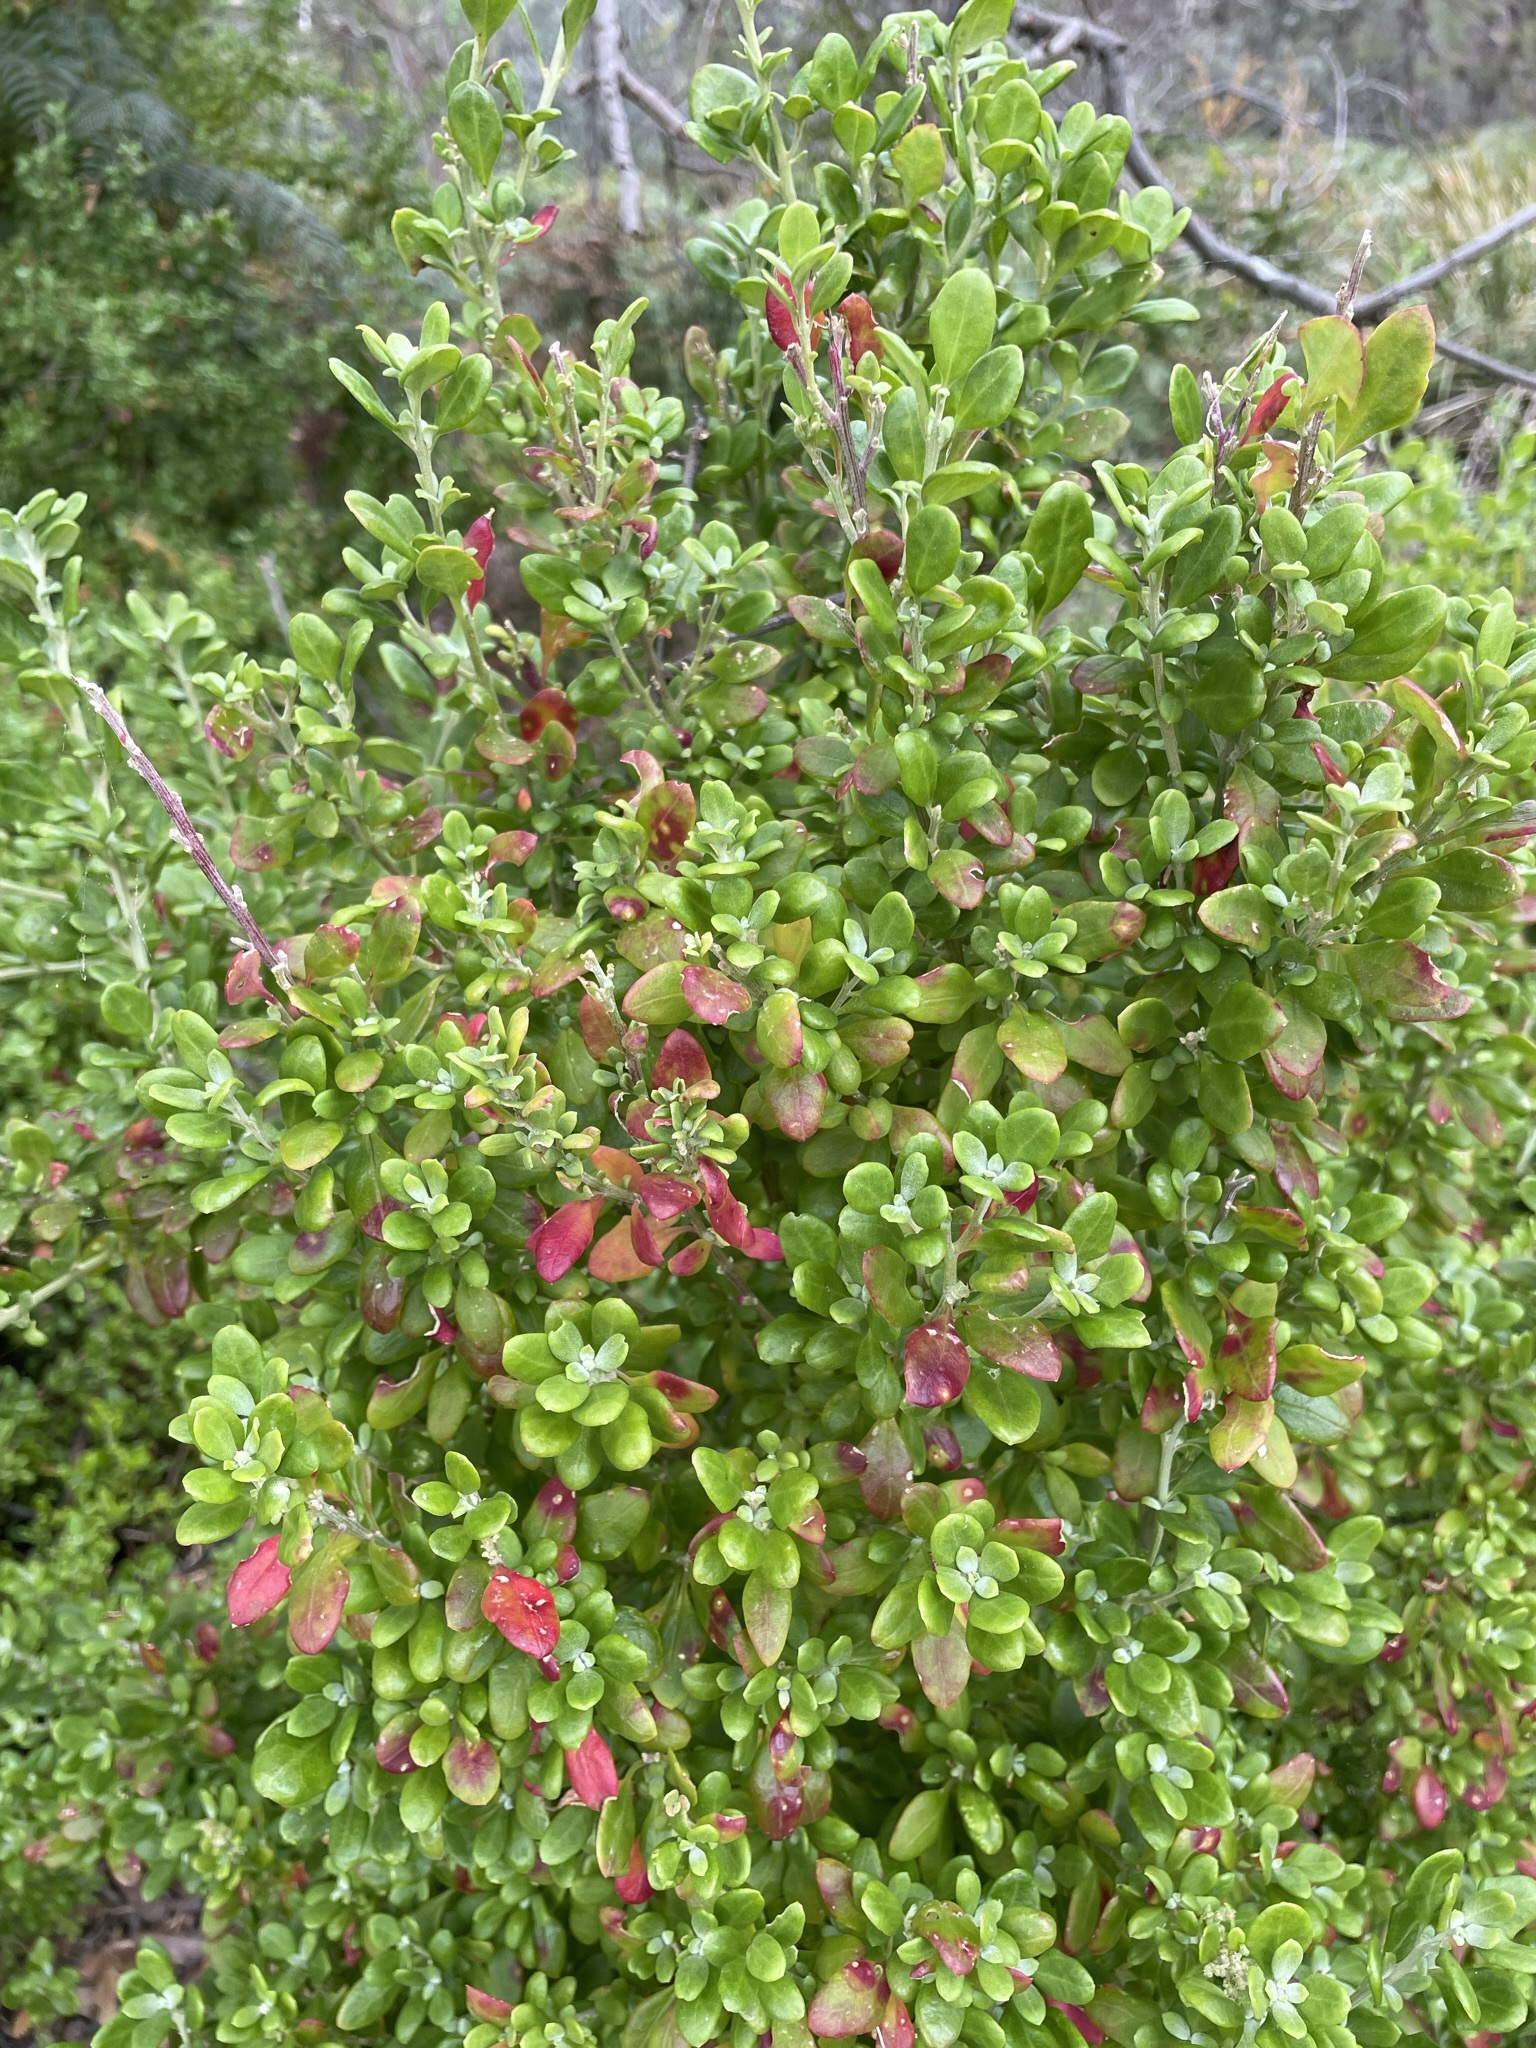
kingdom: Plantae
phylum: Tracheophyta
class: Magnoliopsida
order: Caryophyllales
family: Amaranthaceae
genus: Chenopodium
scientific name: Chenopodium candolleanum
